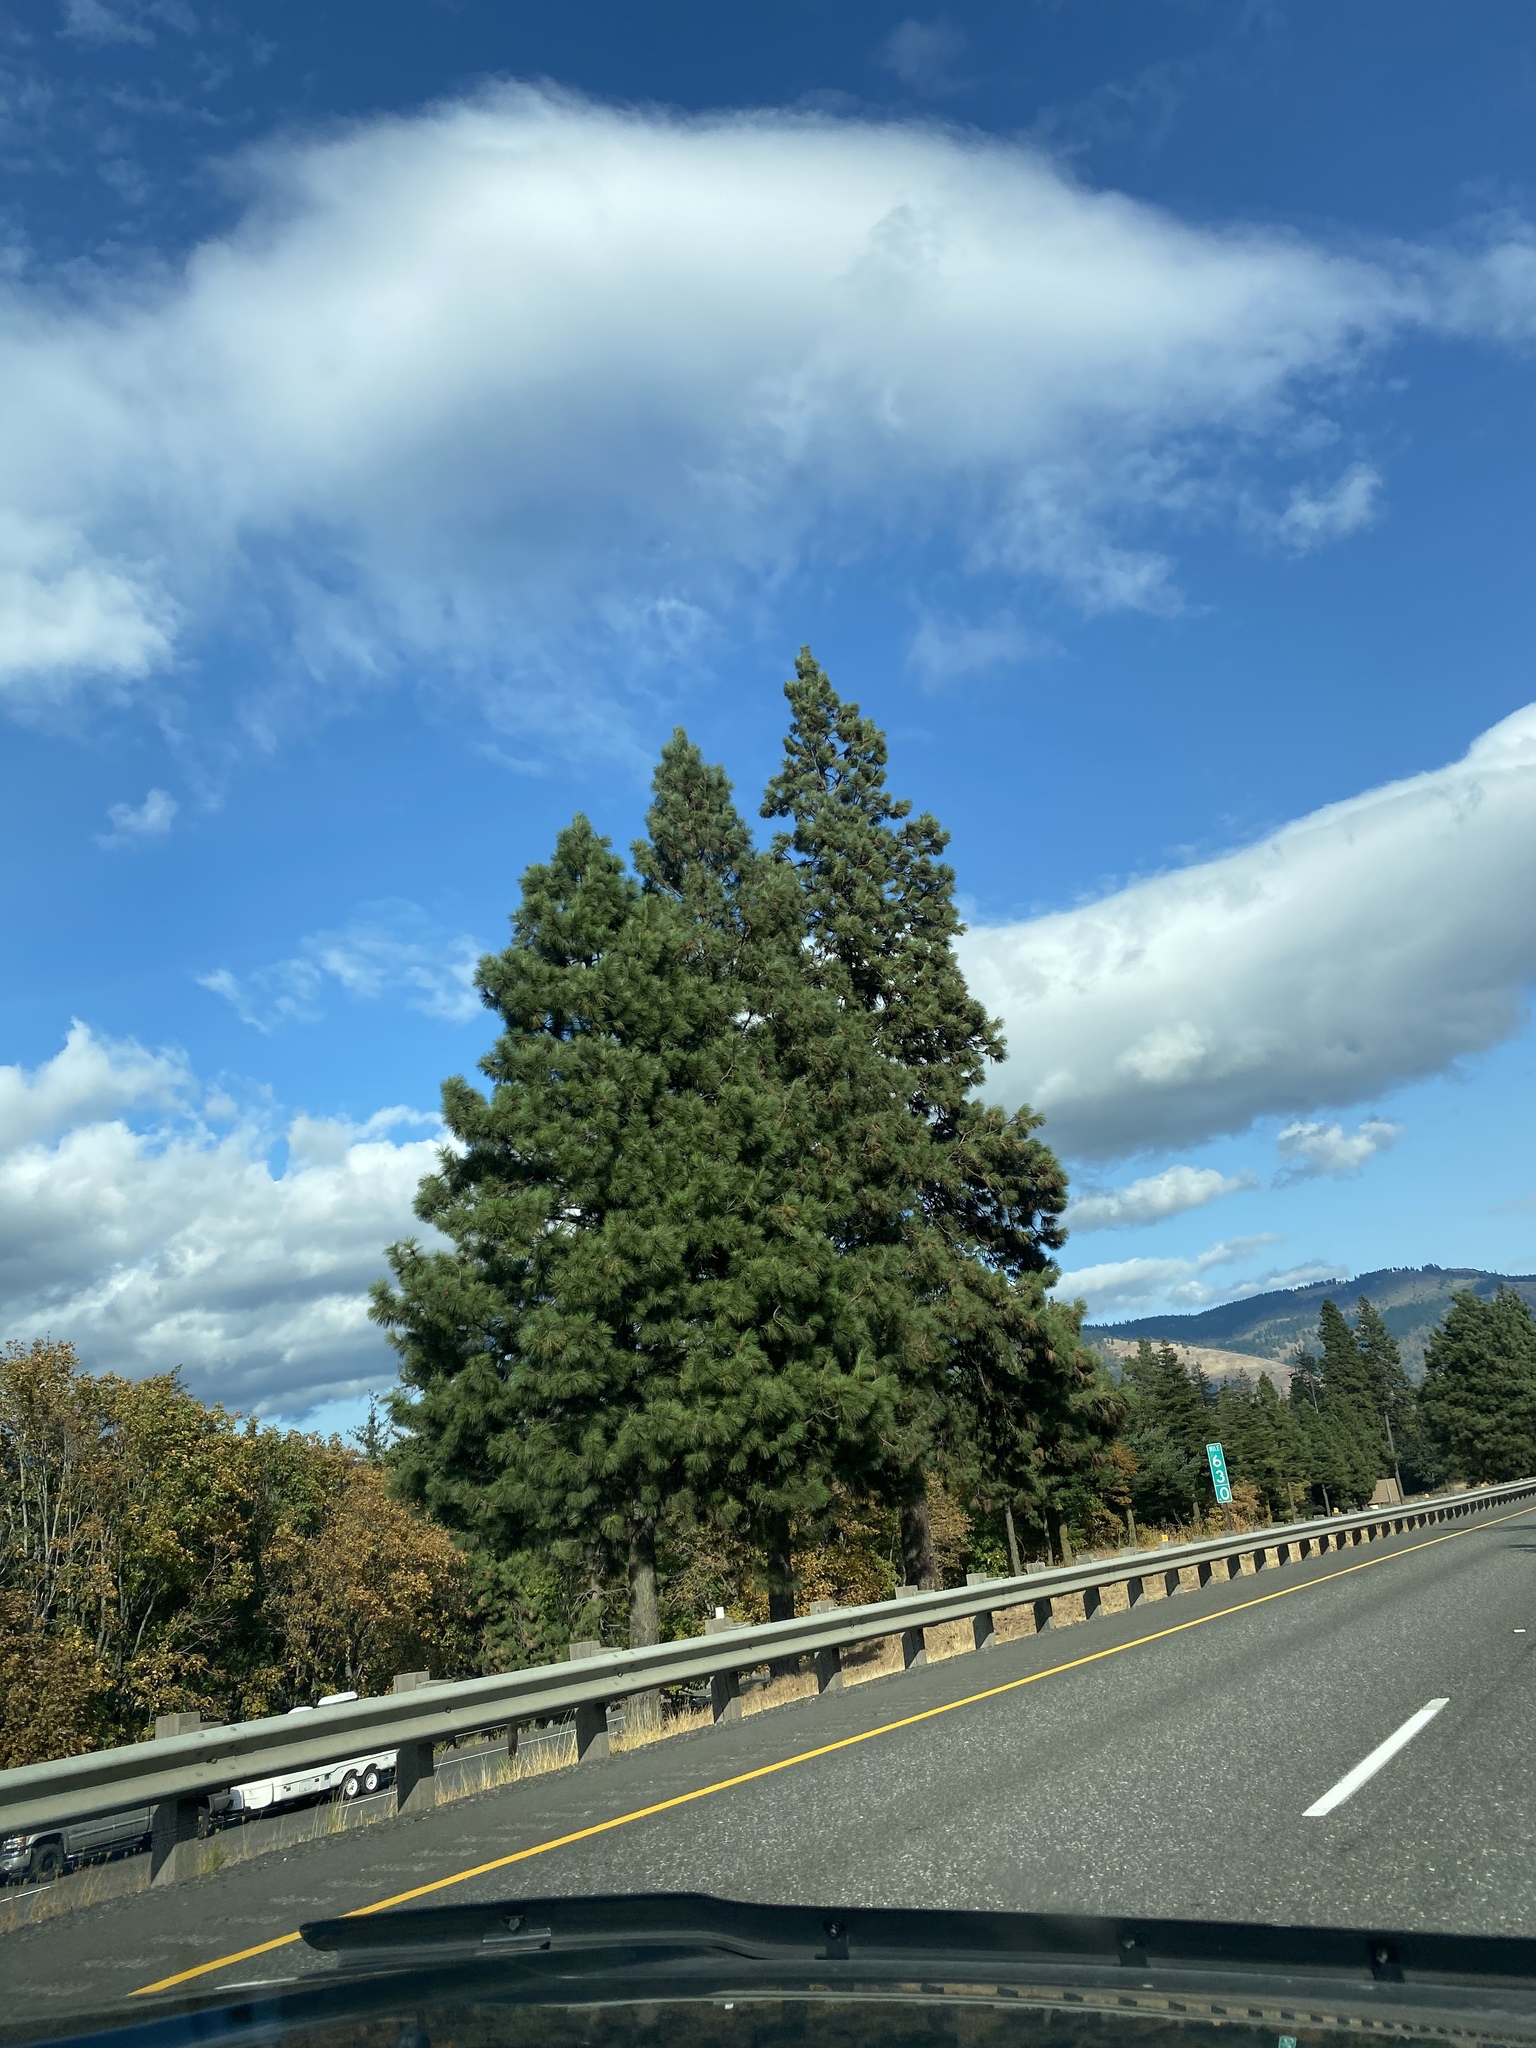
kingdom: Plantae
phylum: Tracheophyta
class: Pinopsida
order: Pinales
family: Pinaceae
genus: Pinus
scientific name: Pinus ponderosa
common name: Western yellow-pine
